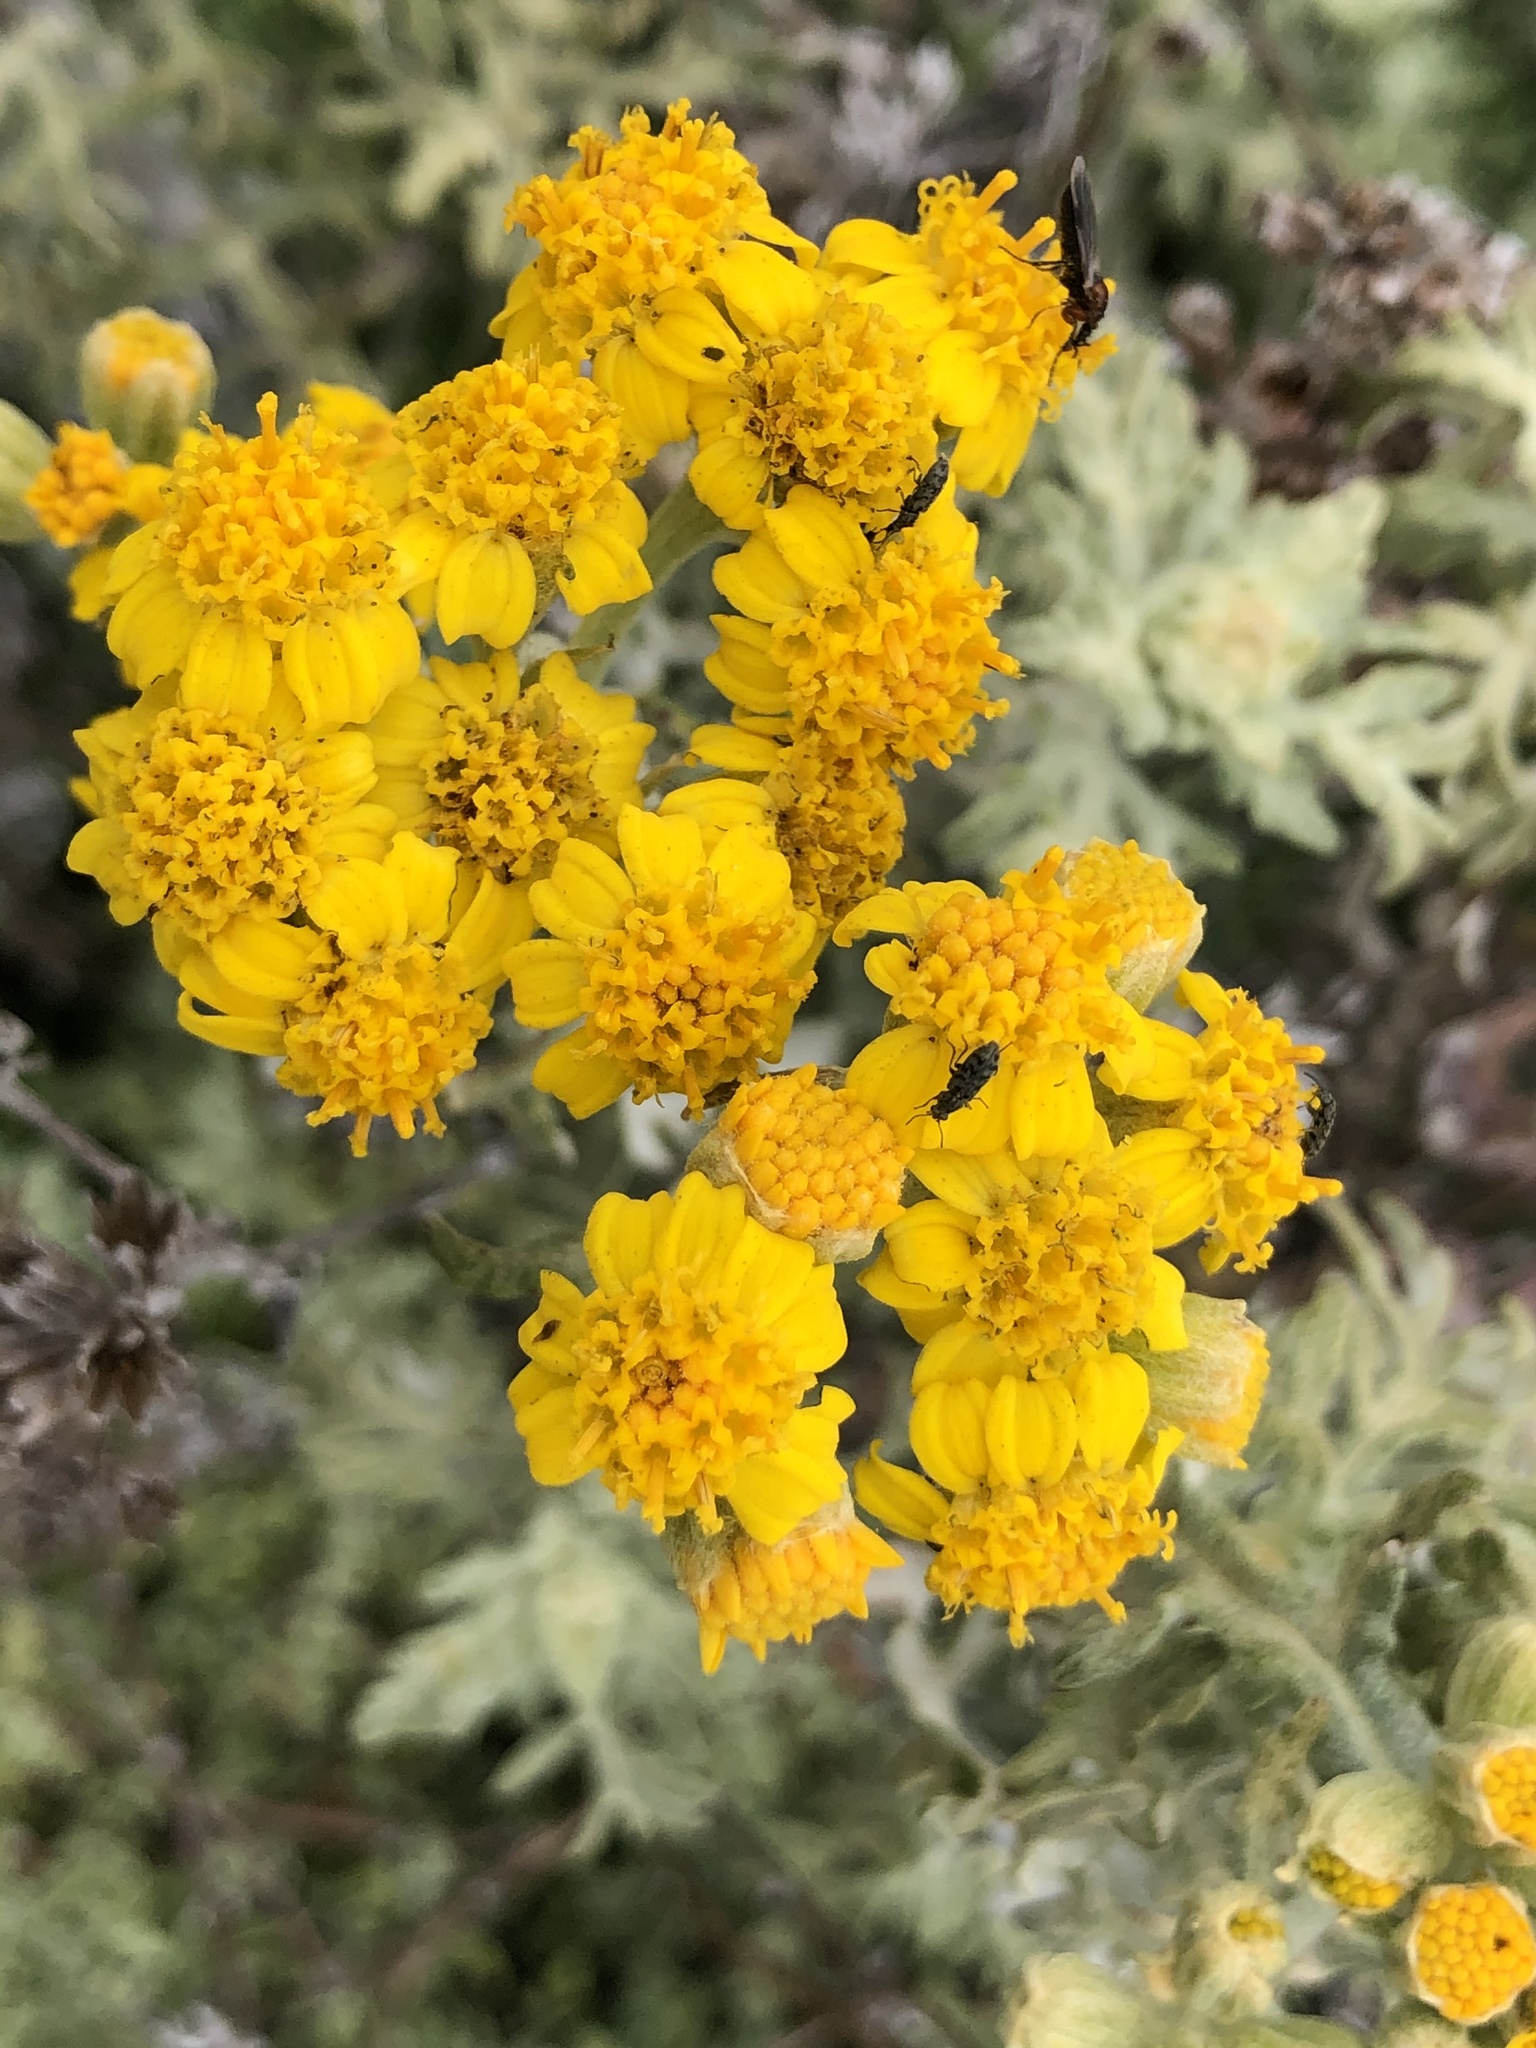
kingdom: Plantae
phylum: Tracheophyta
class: Magnoliopsida
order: Asterales
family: Asteraceae
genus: Eriophyllum
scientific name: Eriophyllum staechadifolium
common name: Lizardtail
